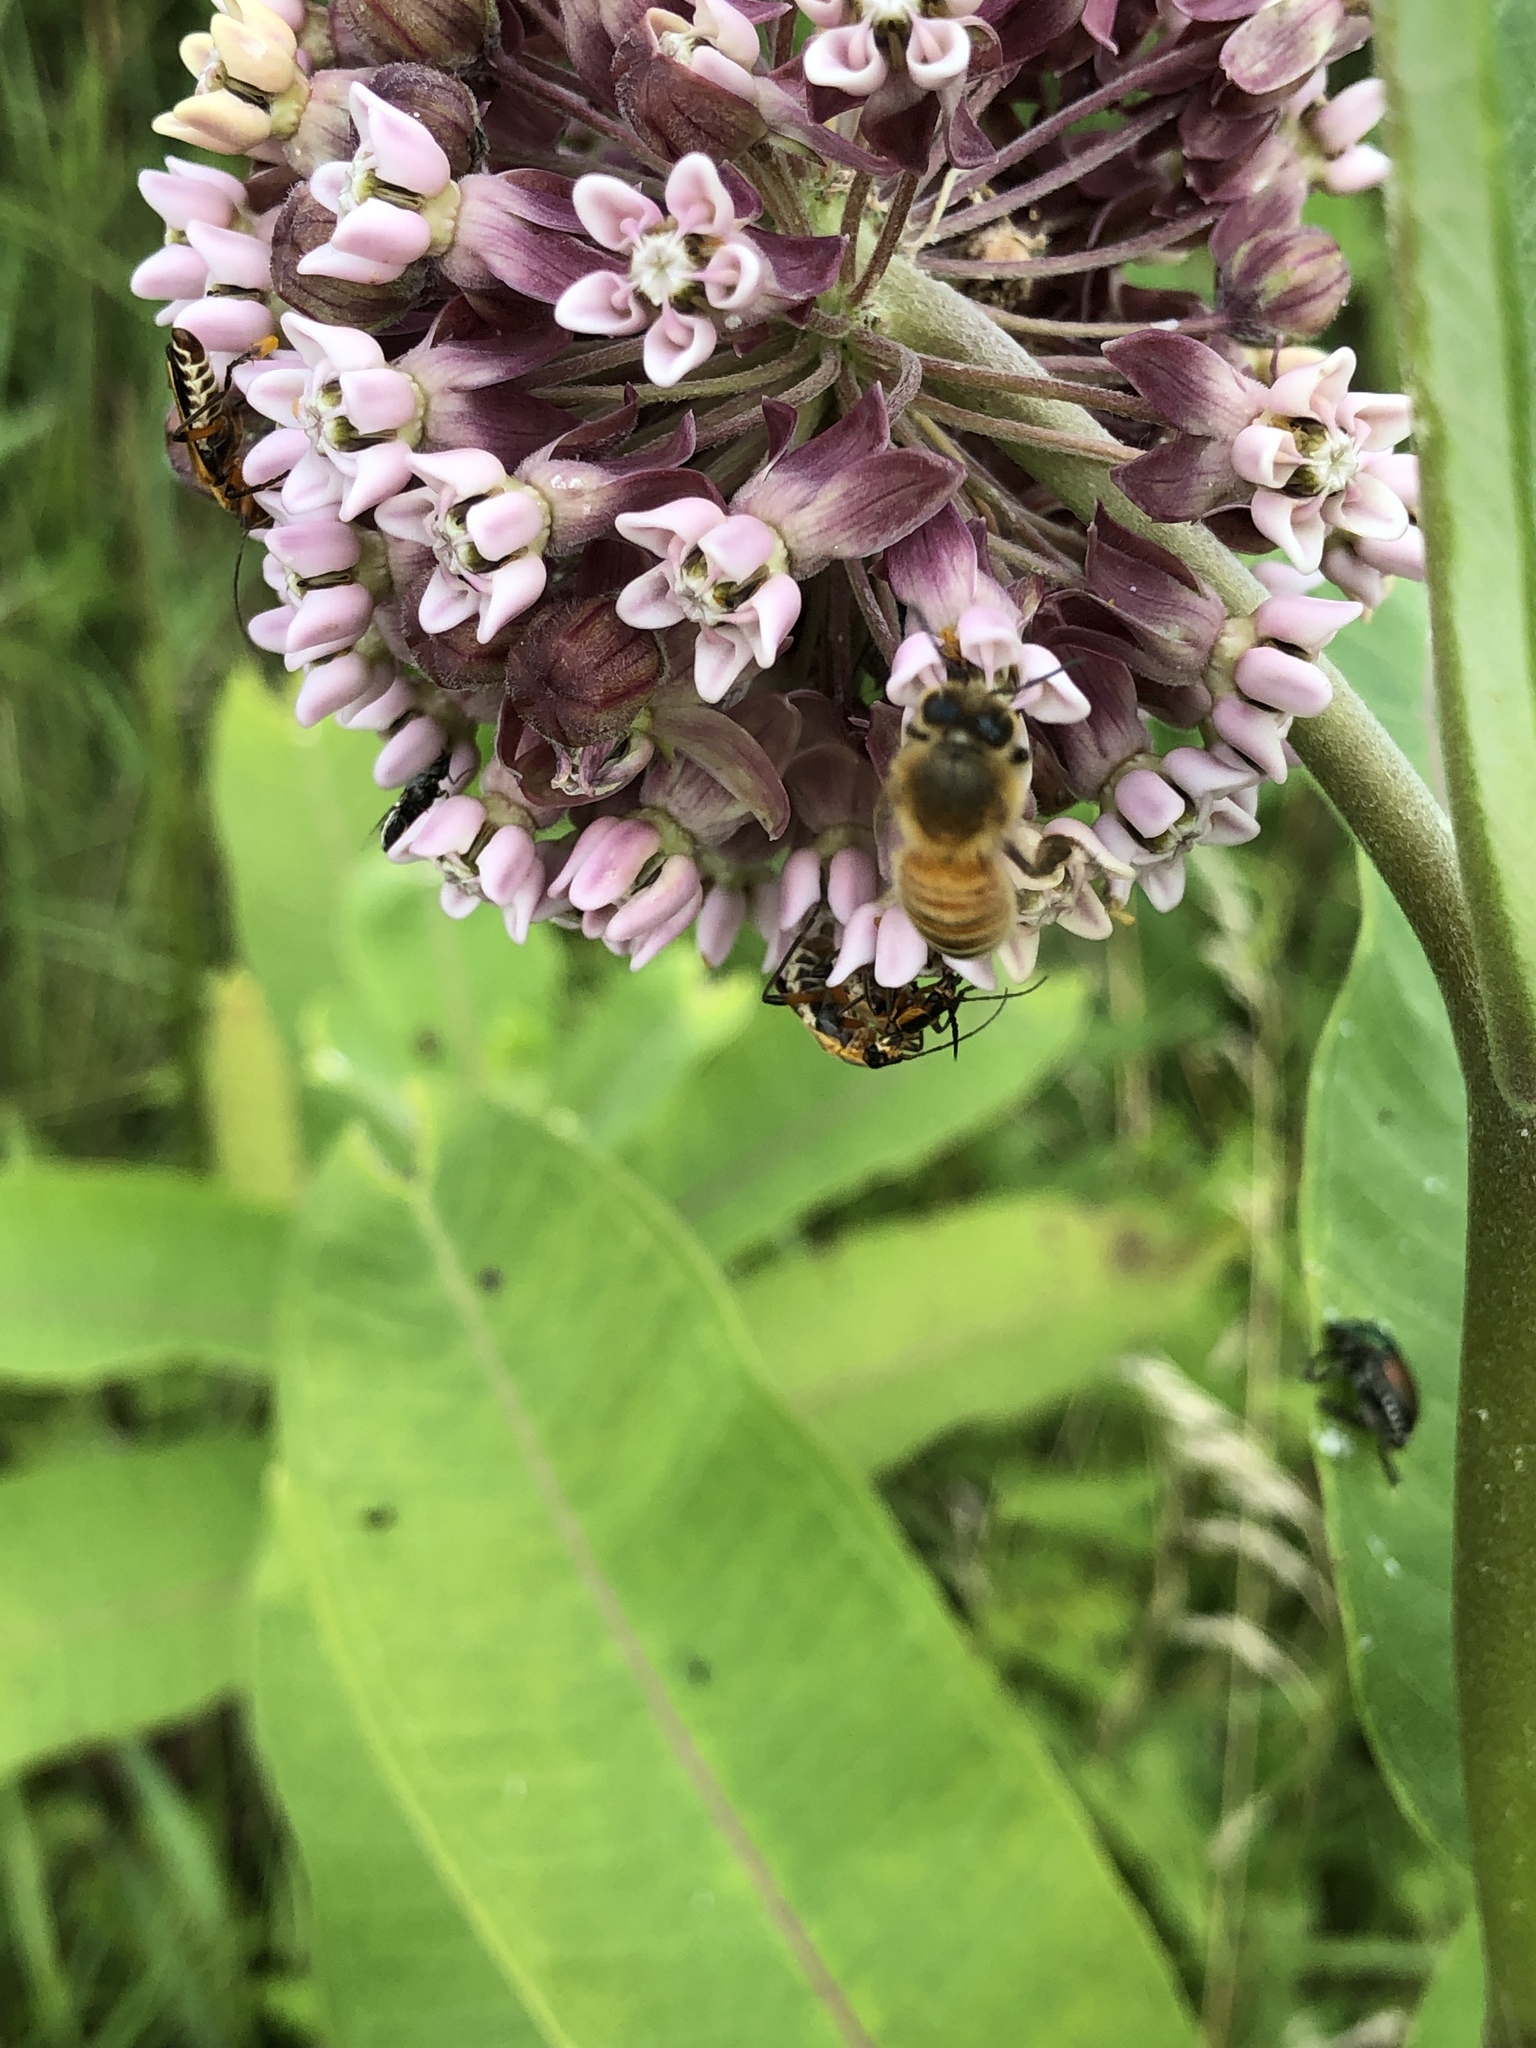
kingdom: Animalia
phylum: Arthropoda
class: Insecta
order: Hymenoptera
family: Apidae
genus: Apis
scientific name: Apis mellifera
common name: Honey bee
